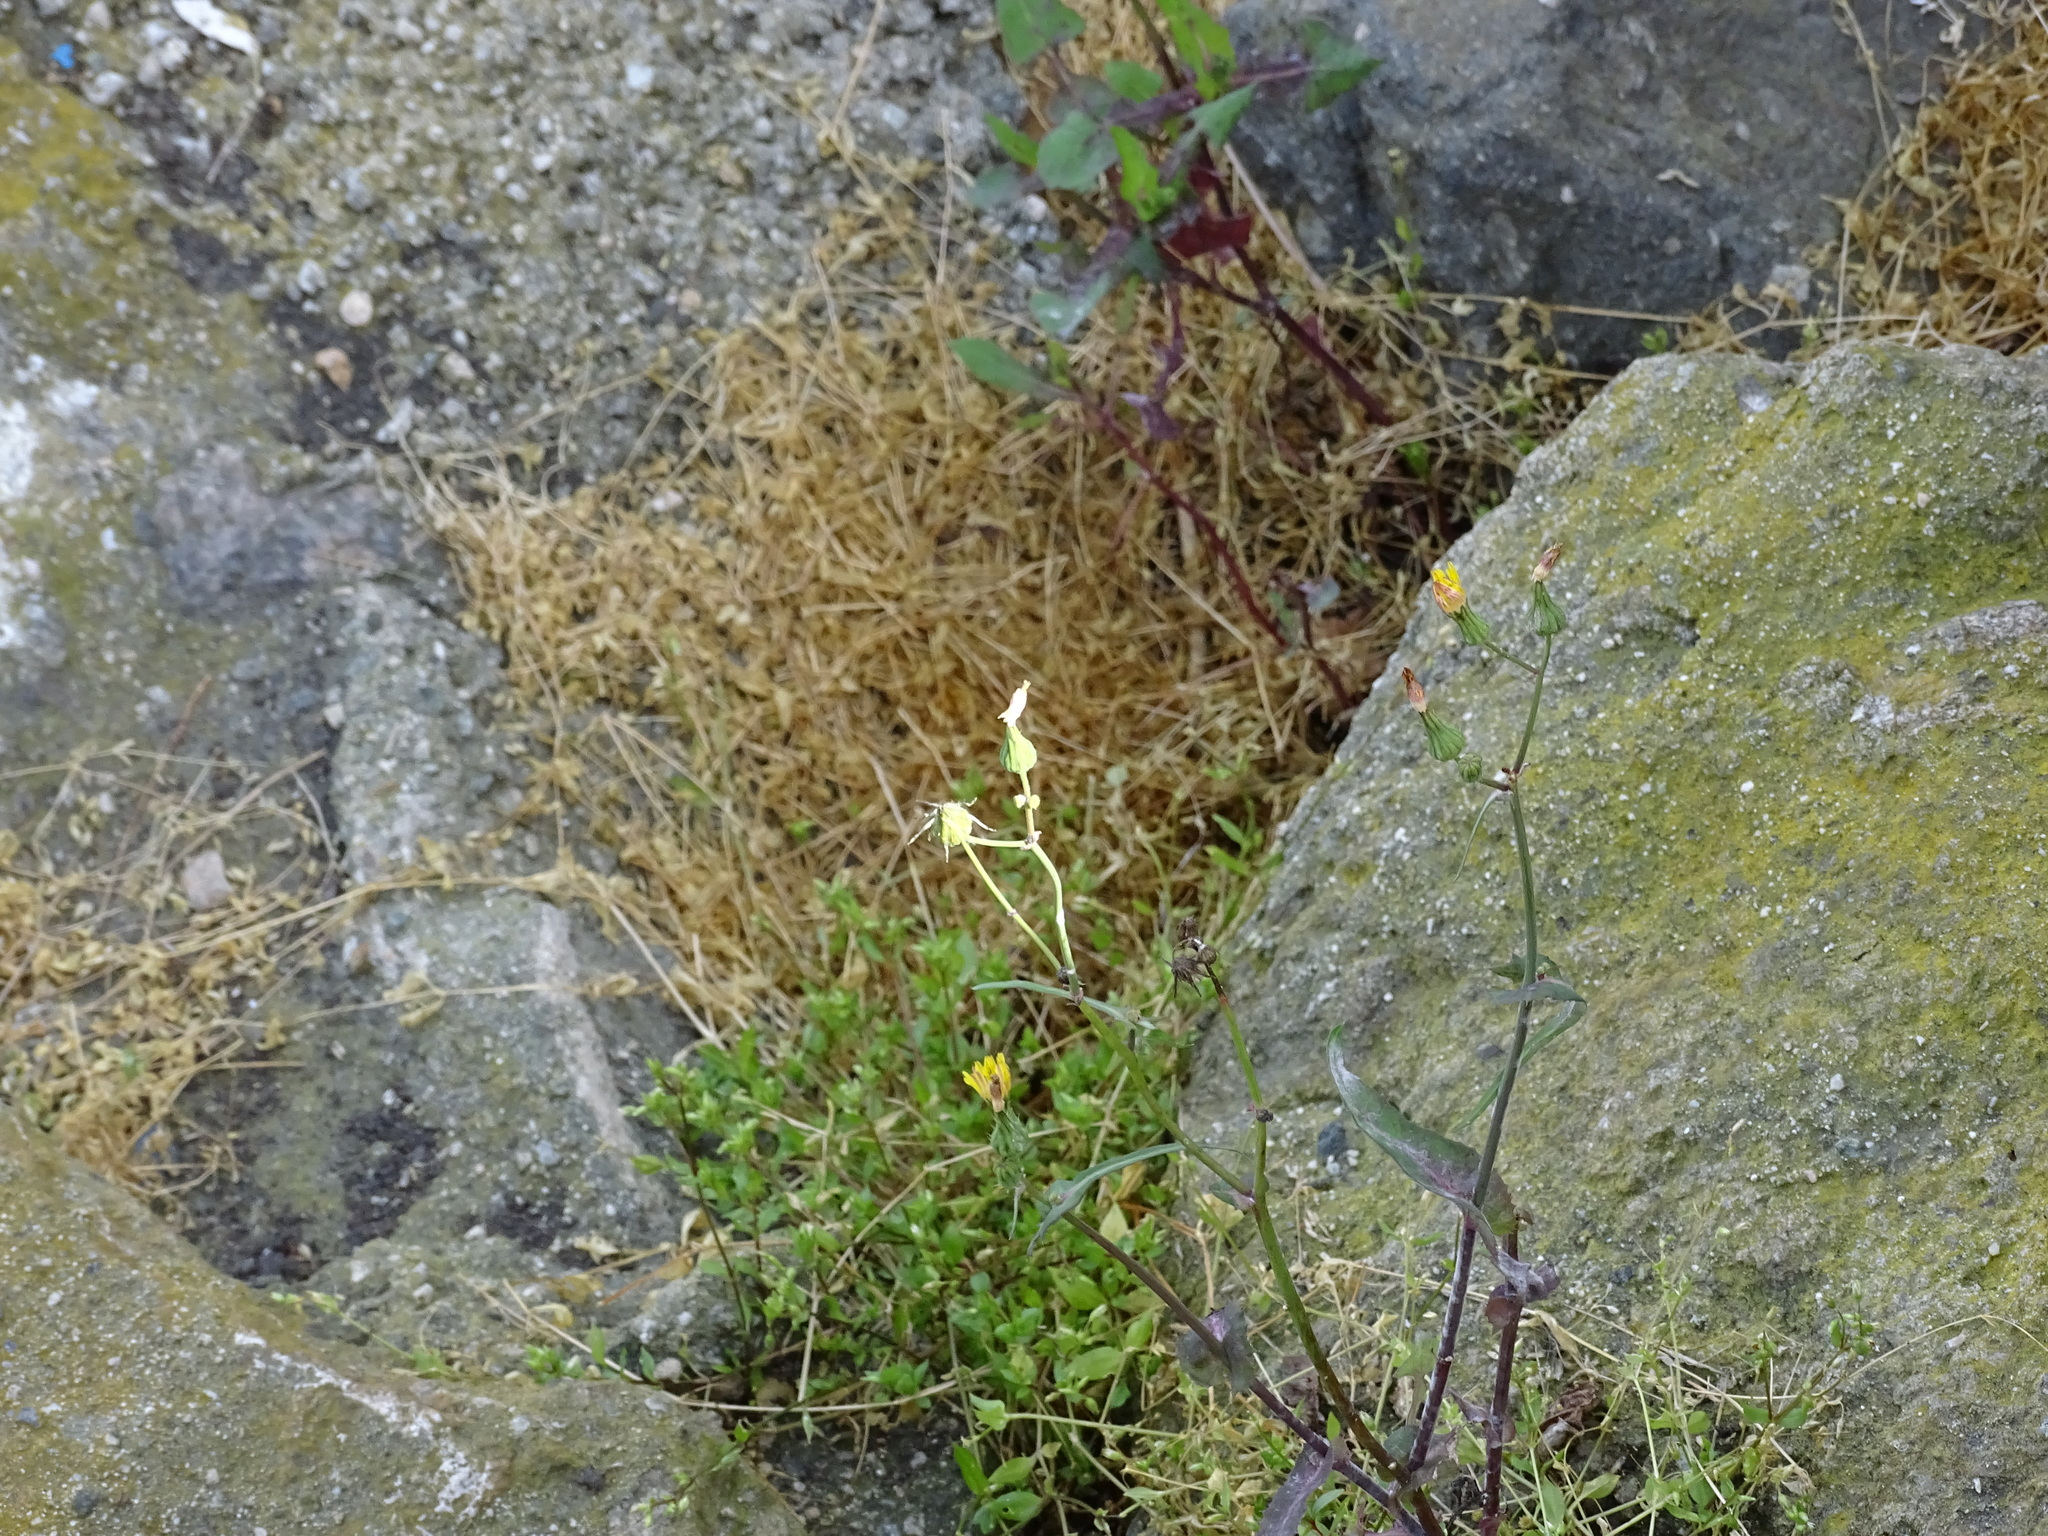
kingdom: Plantae
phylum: Tracheophyta
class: Magnoliopsida
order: Asterales
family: Asteraceae
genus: Sonchus
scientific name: Sonchus oleraceus
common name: Common sowthistle
